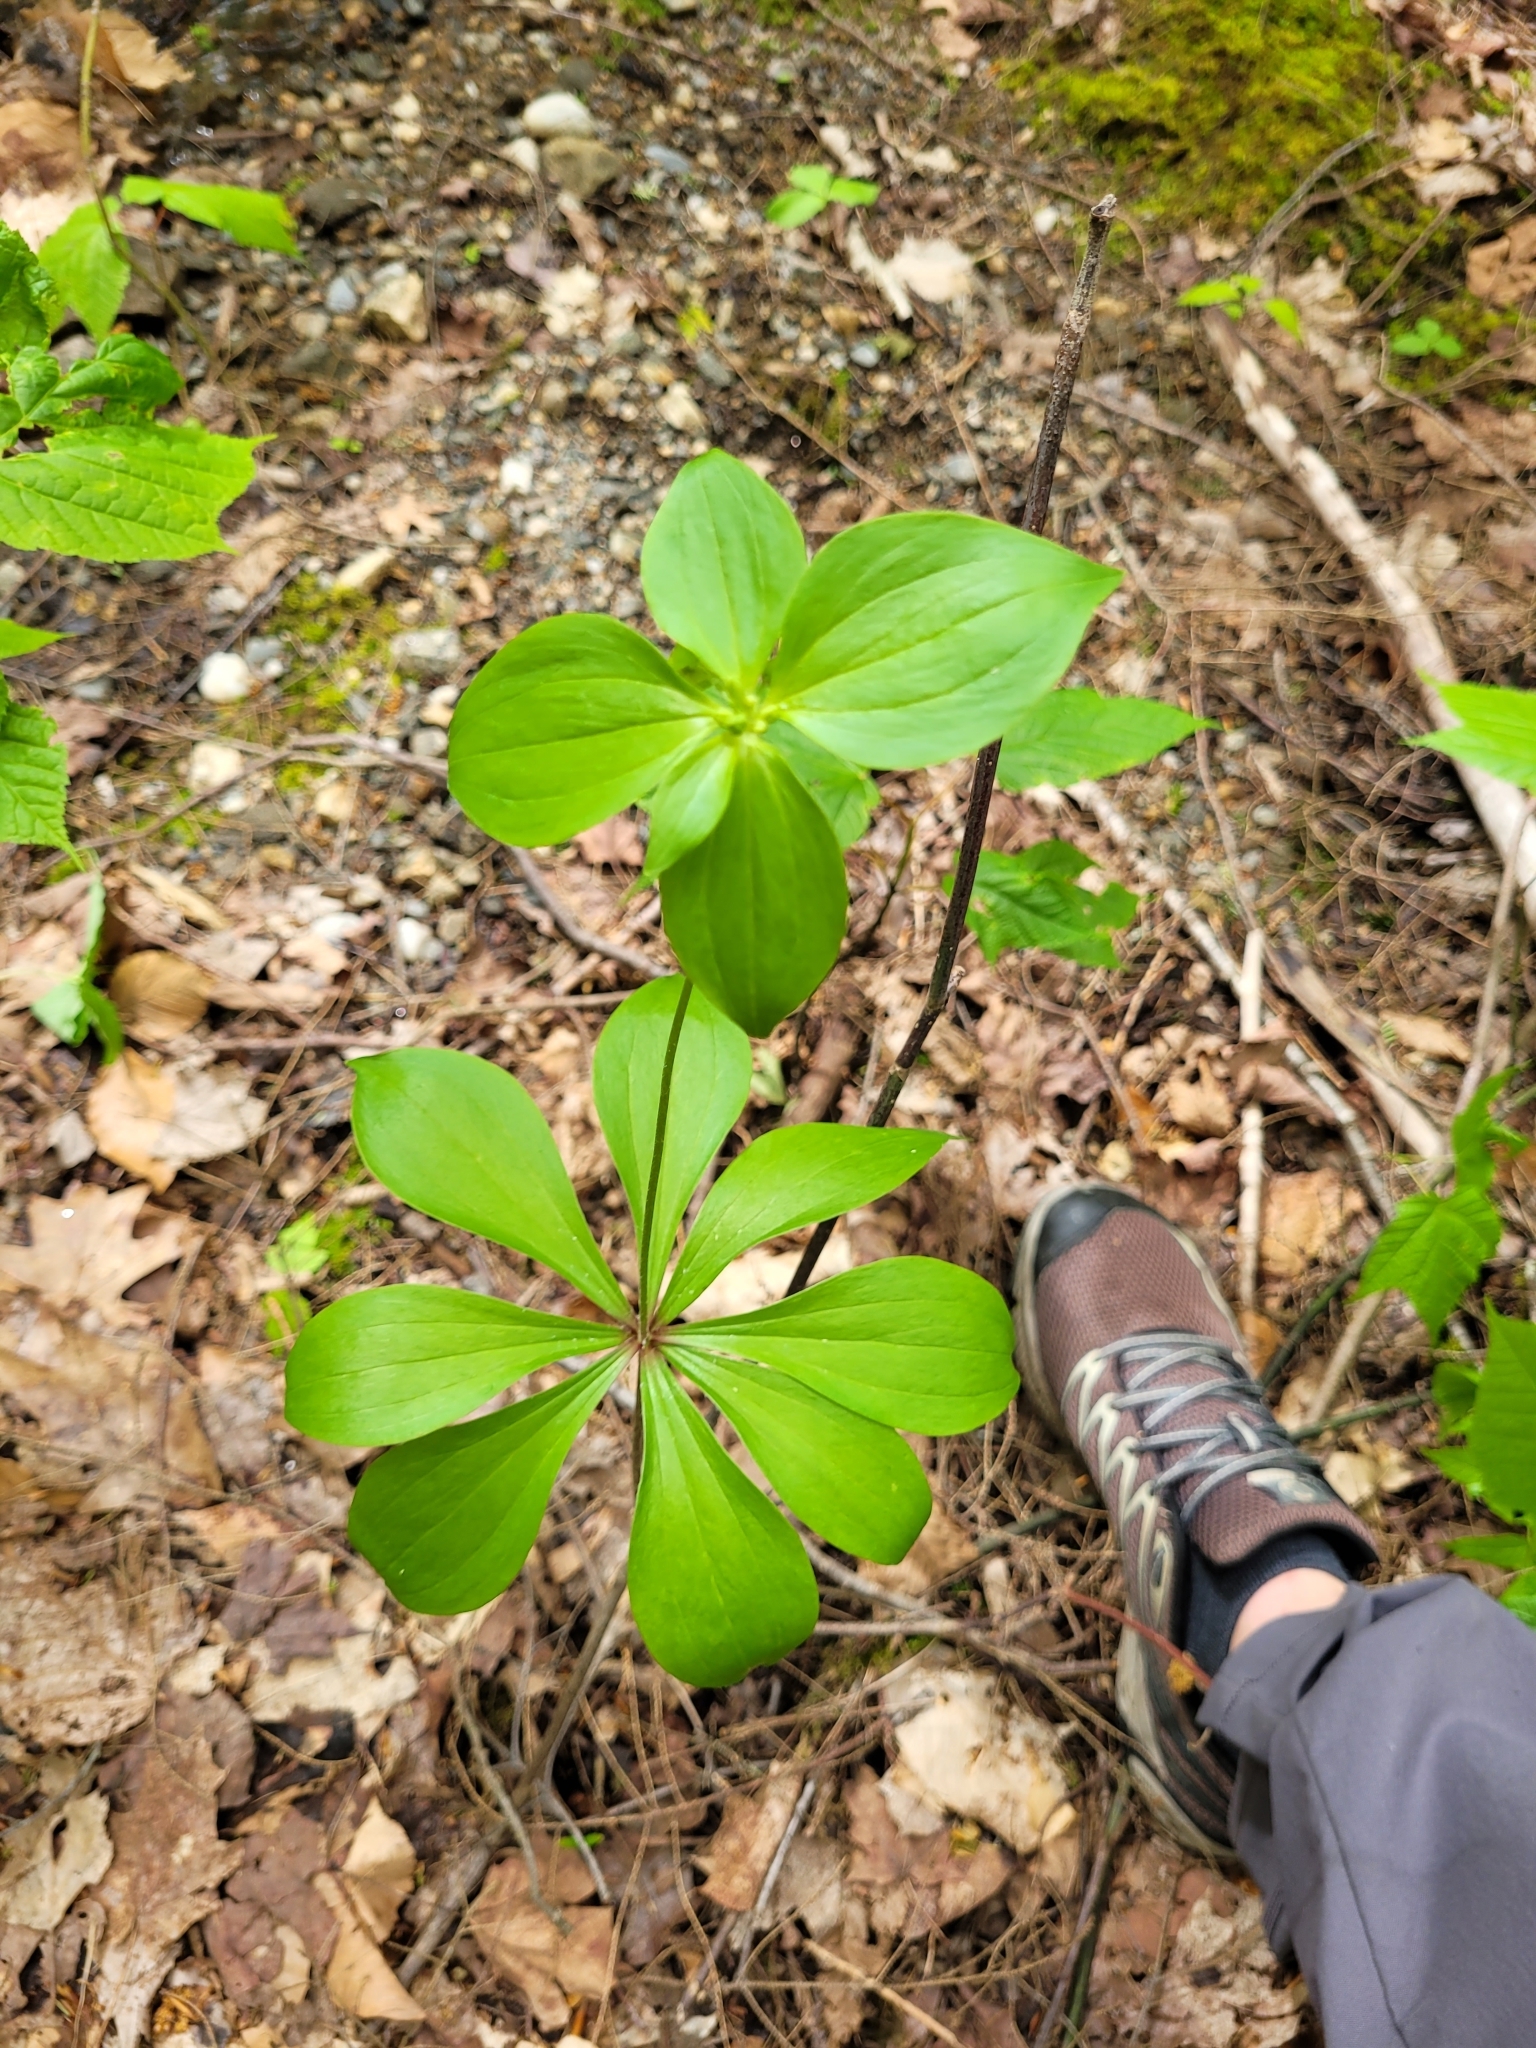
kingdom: Plantae
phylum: Tracheophyta
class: Liliopsida
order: Liliales
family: Liliaceae
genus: Medeola
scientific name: Medeola virginiana
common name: Indian cucumber-root
